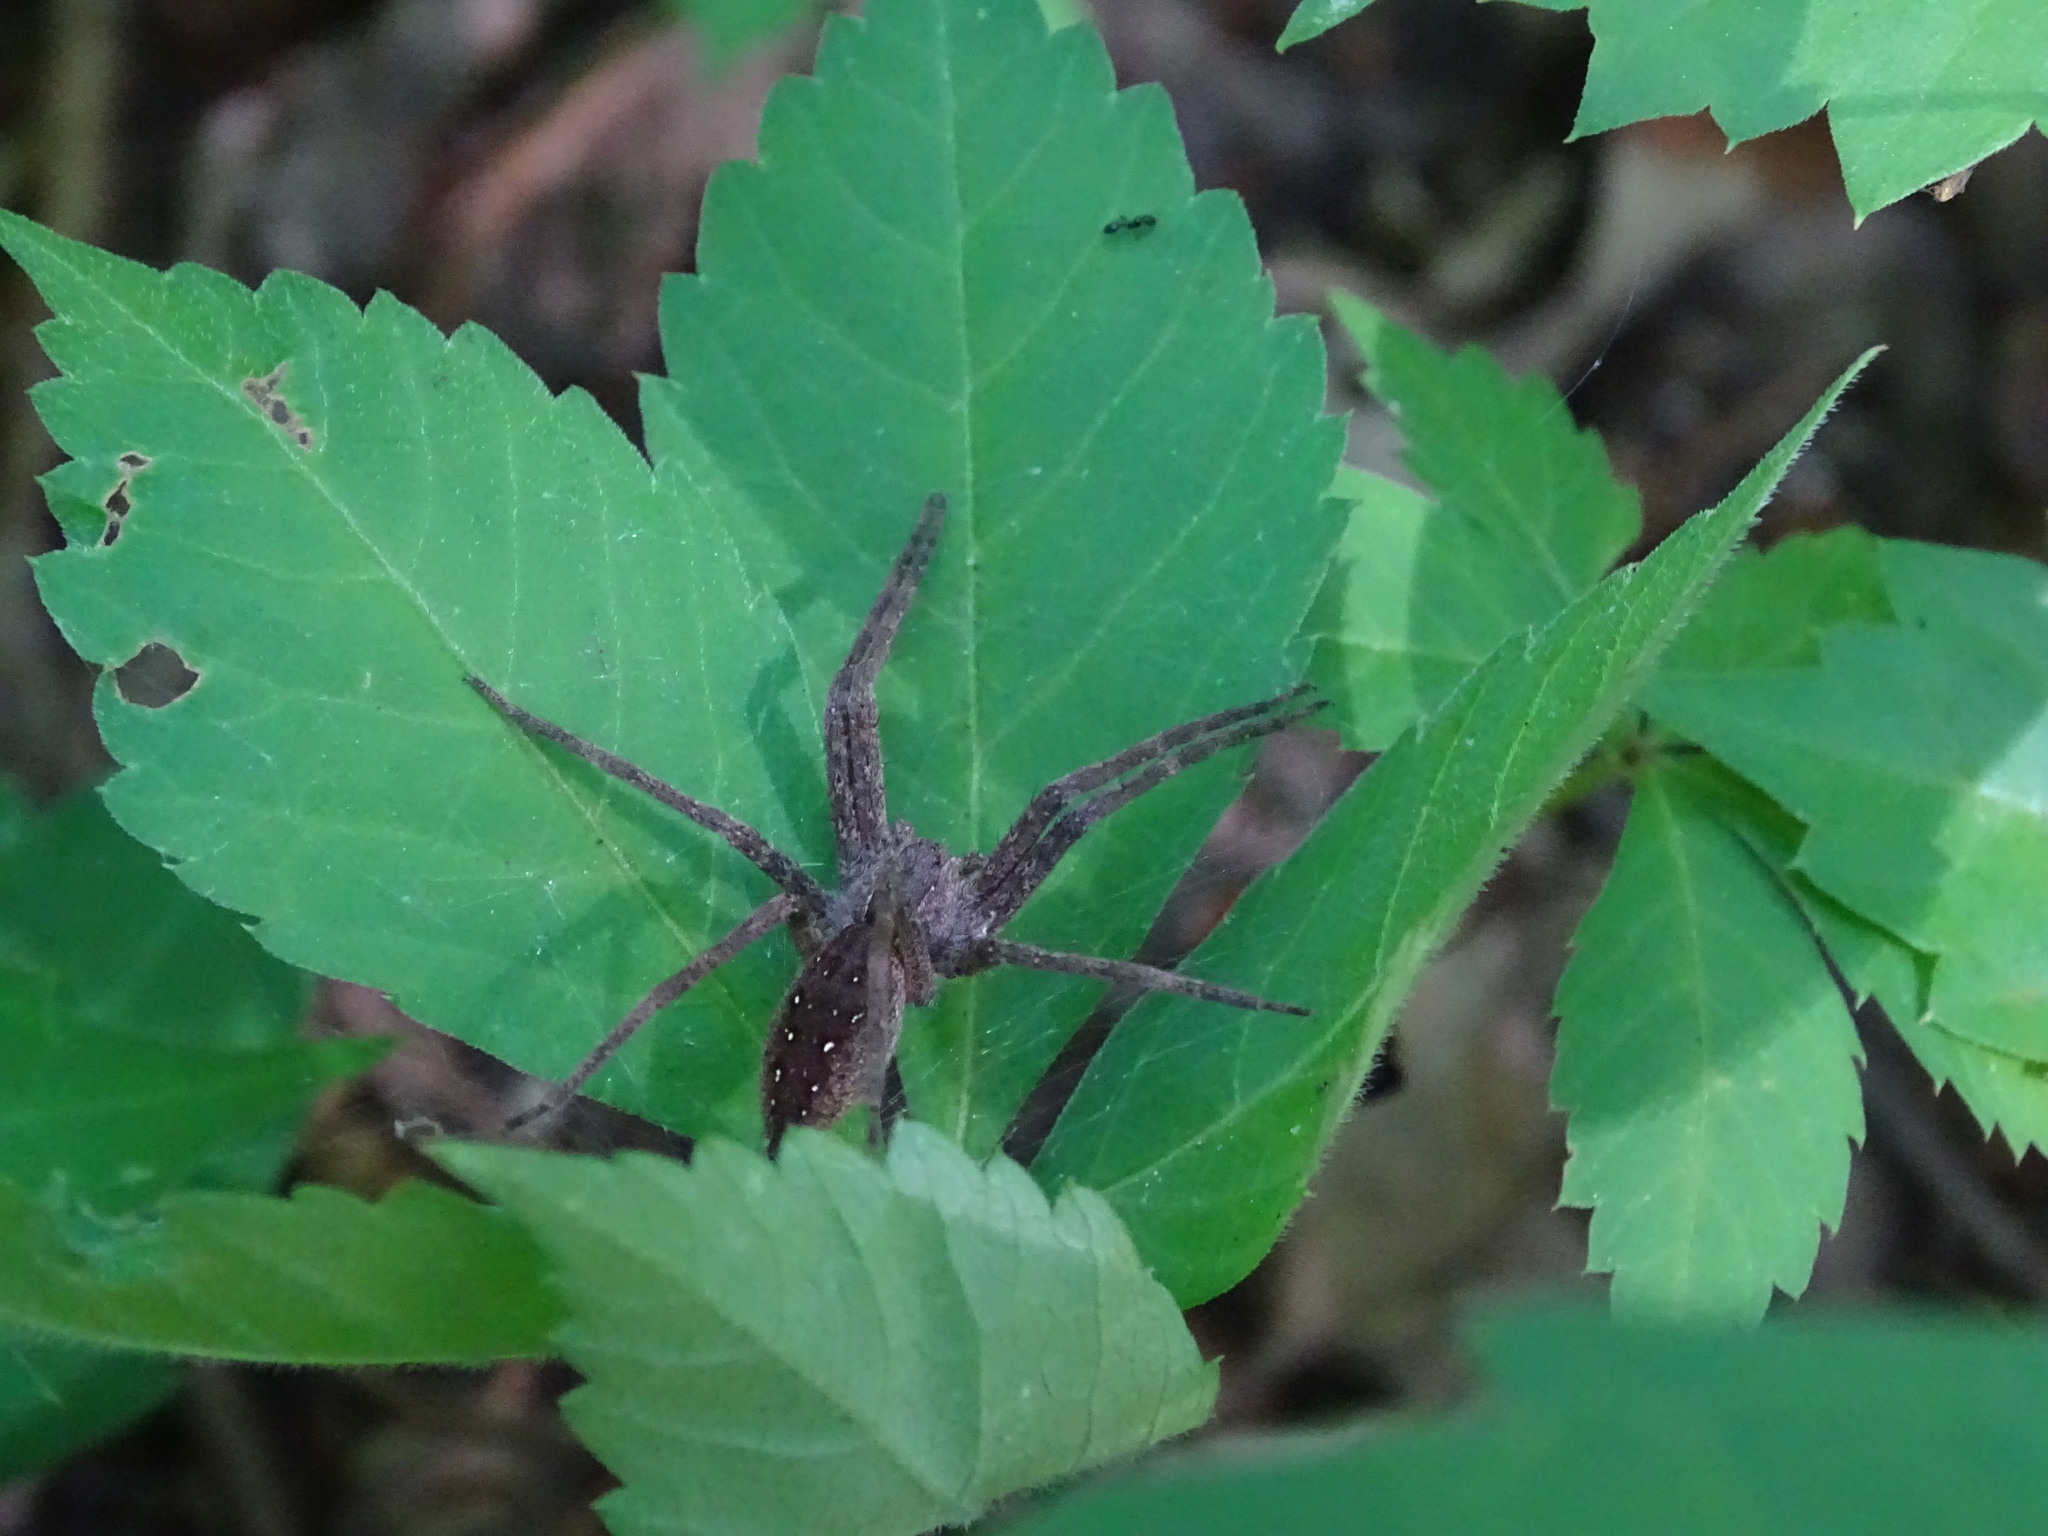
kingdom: Animalia
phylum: Arthropoda
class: Arachnida
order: Araneae
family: Pisauridae
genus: Pisaurina
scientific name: Pisaurina mira
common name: American nursery web spider
